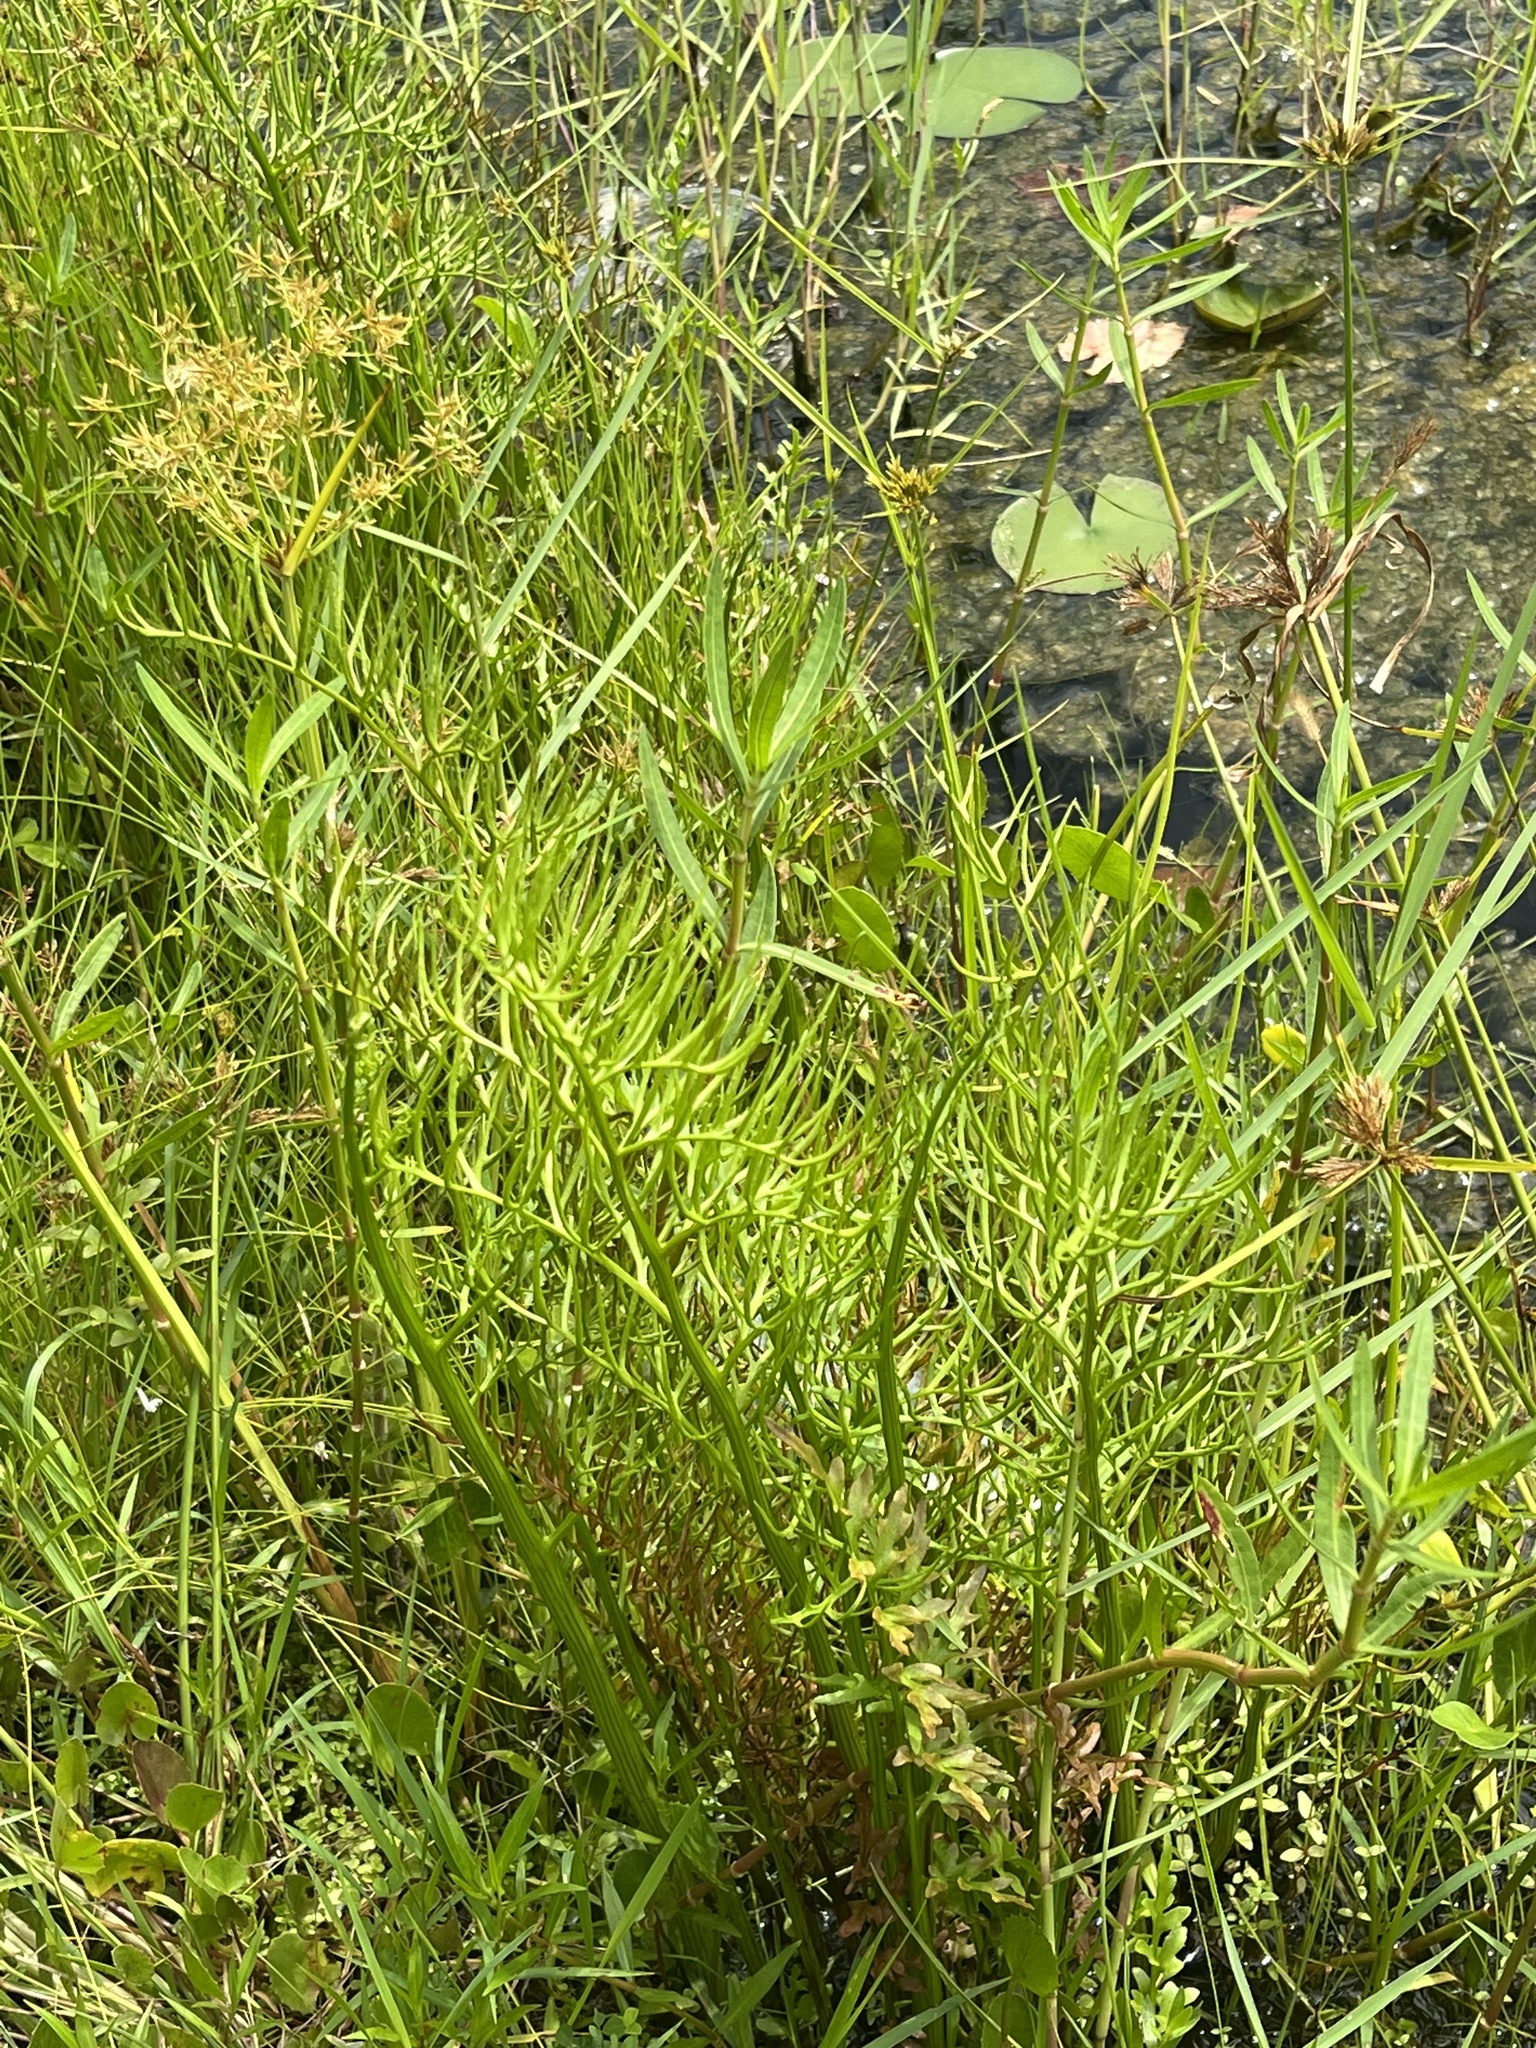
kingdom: Plantae
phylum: Tracheophyta
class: Polypodiopsida
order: Polypodiales
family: Pteridaceae
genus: Ceratopteris
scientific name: Ceratopteris thalictroides
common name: Water fern
